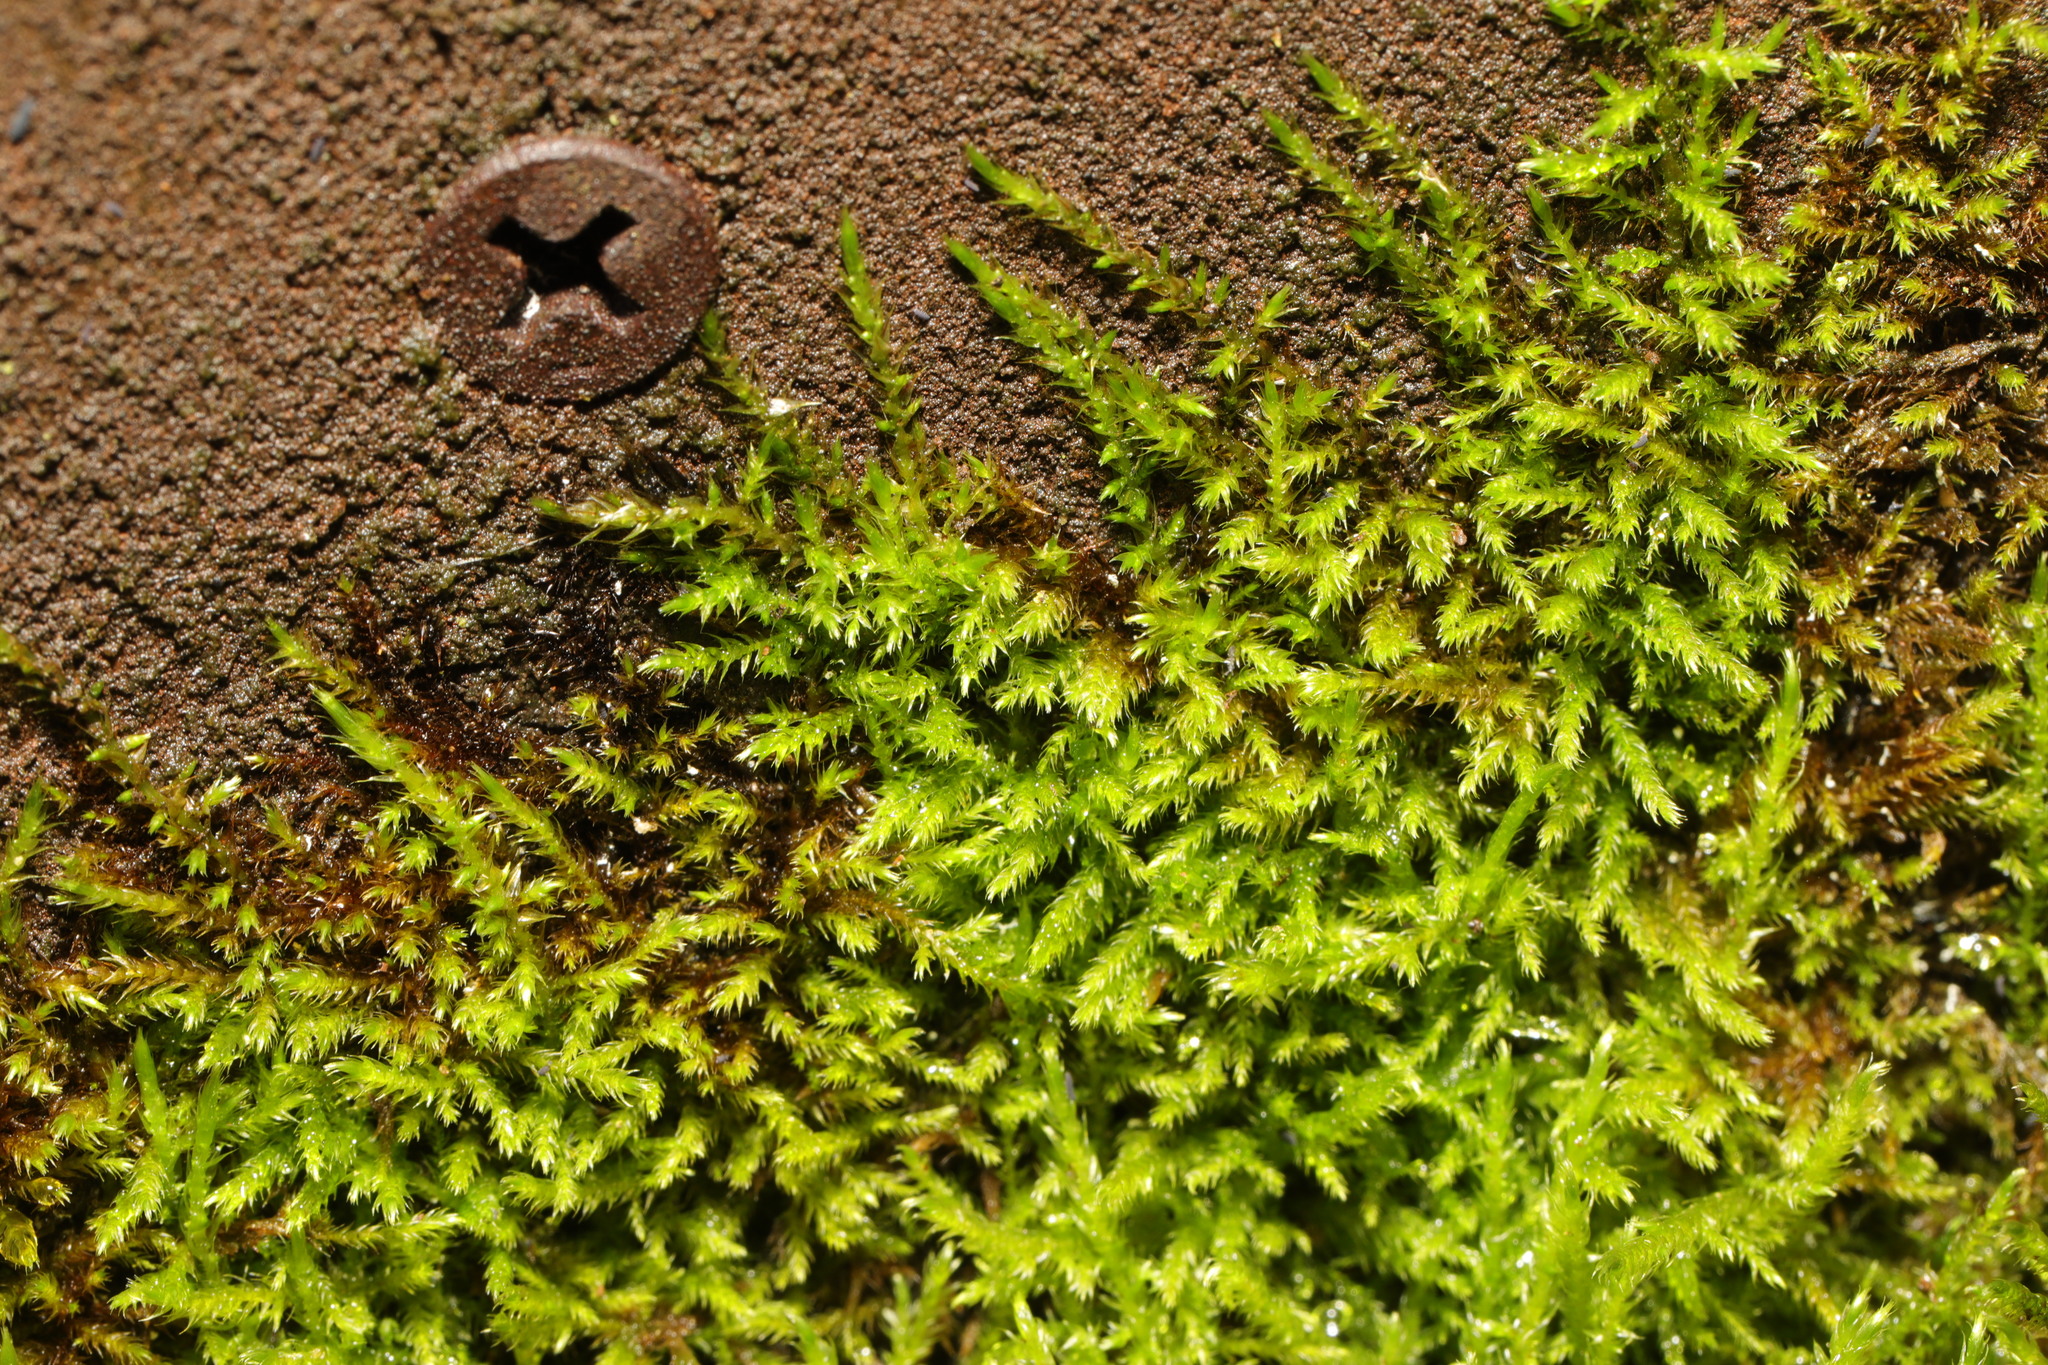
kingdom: Plantae
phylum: Bryophyta
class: Bryopsida
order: Hypnales
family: Brachytheciaceae
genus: Homalothecium
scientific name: Homalothecium sericeum
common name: Silky wall feather-moss
